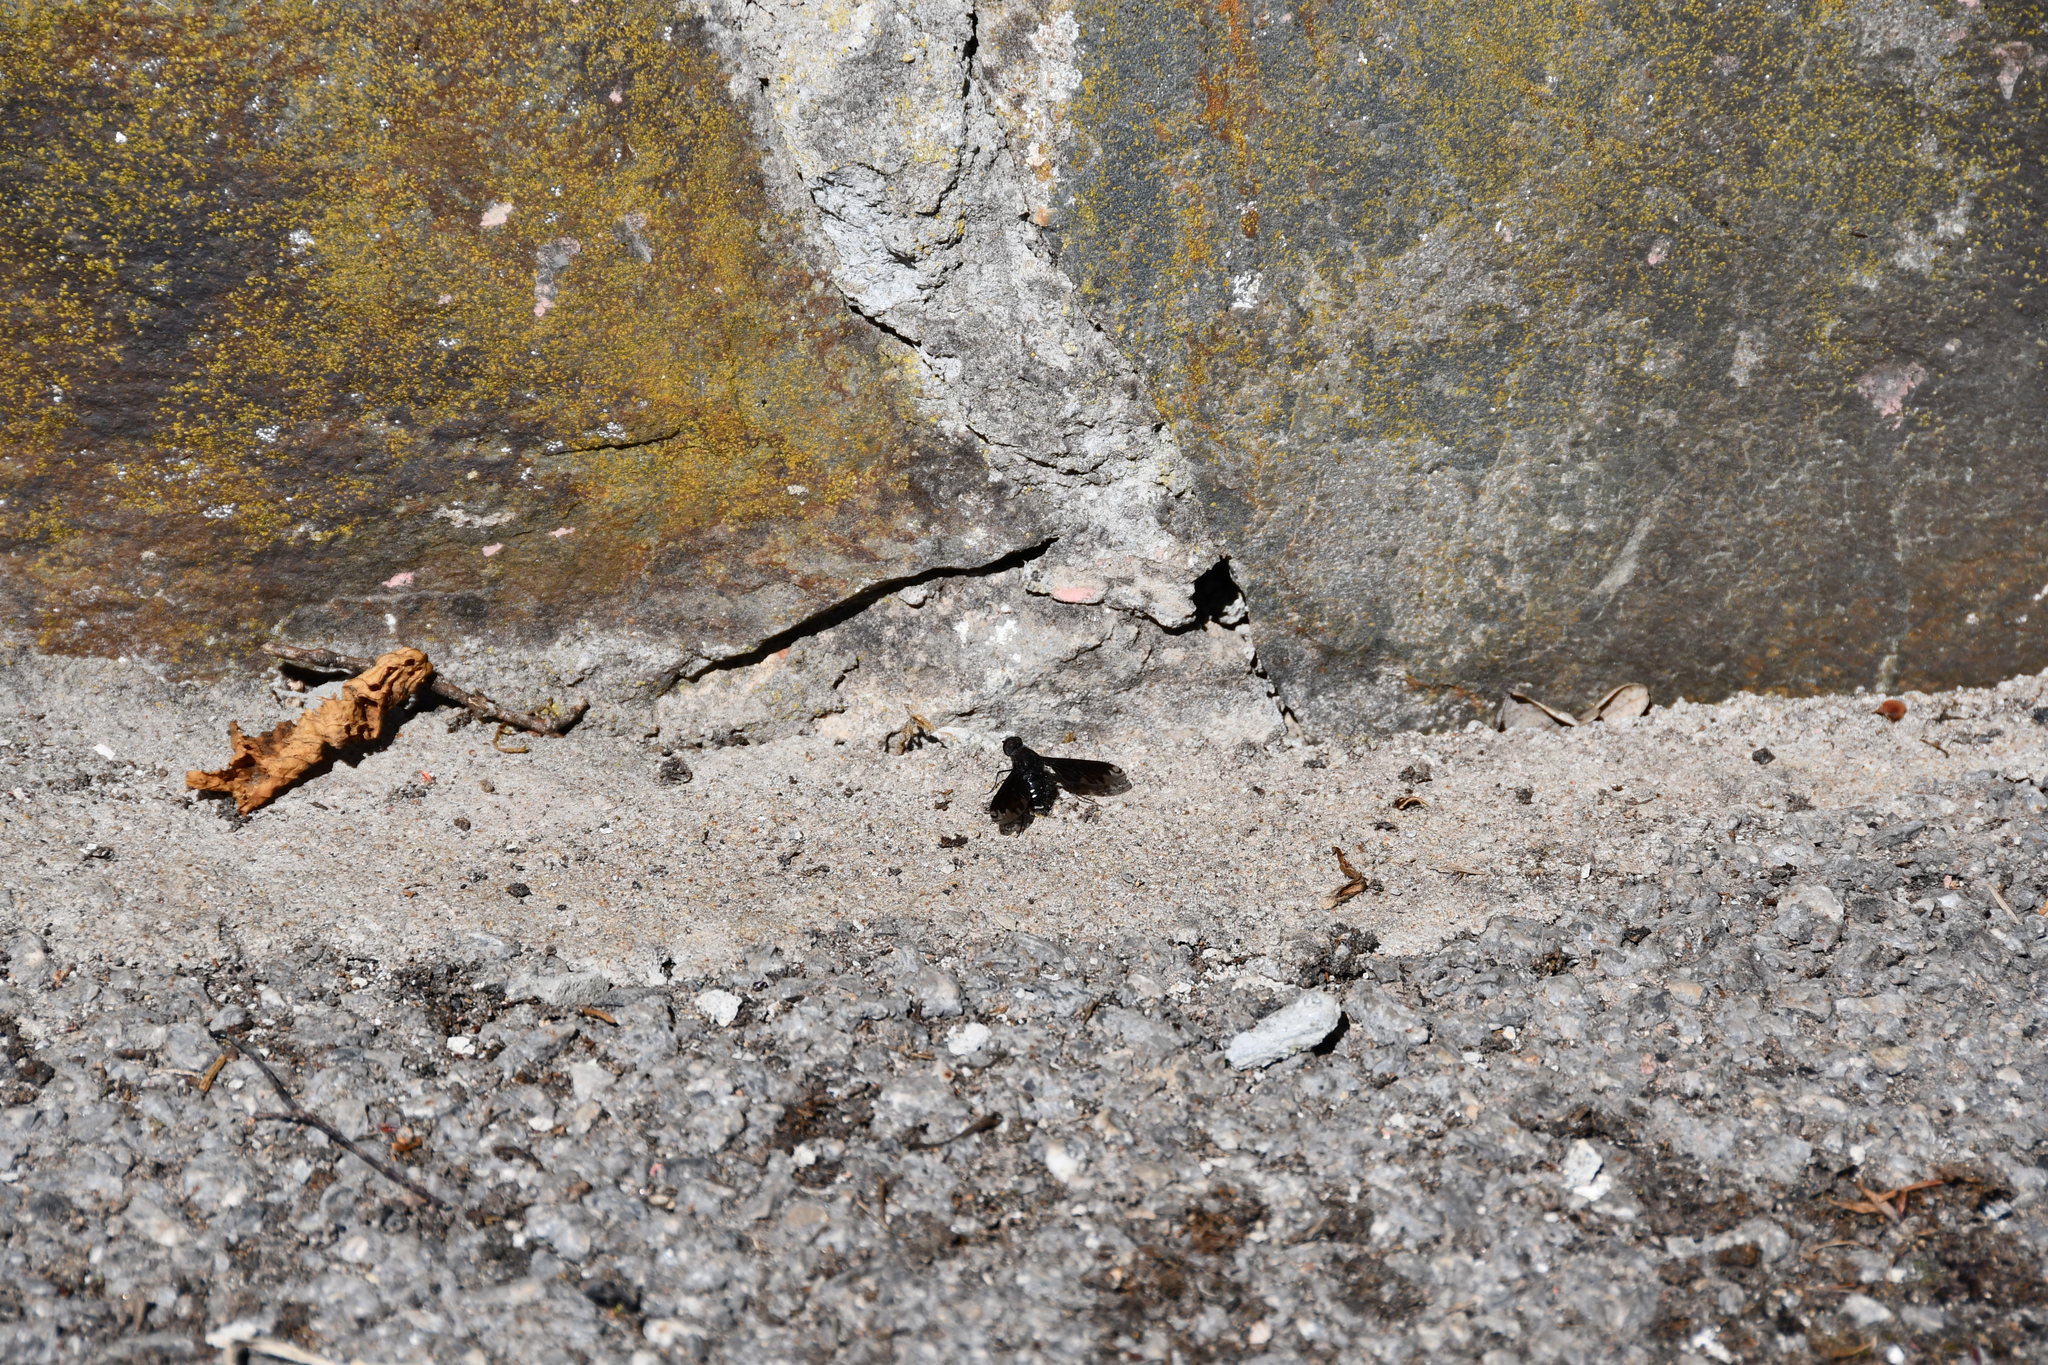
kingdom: Animalia
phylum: Arthropoda
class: Insecta
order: Diptera
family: Bombyliidae
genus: Anthrax
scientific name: Anthrax anthrax
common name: Anthracite bee-fly
